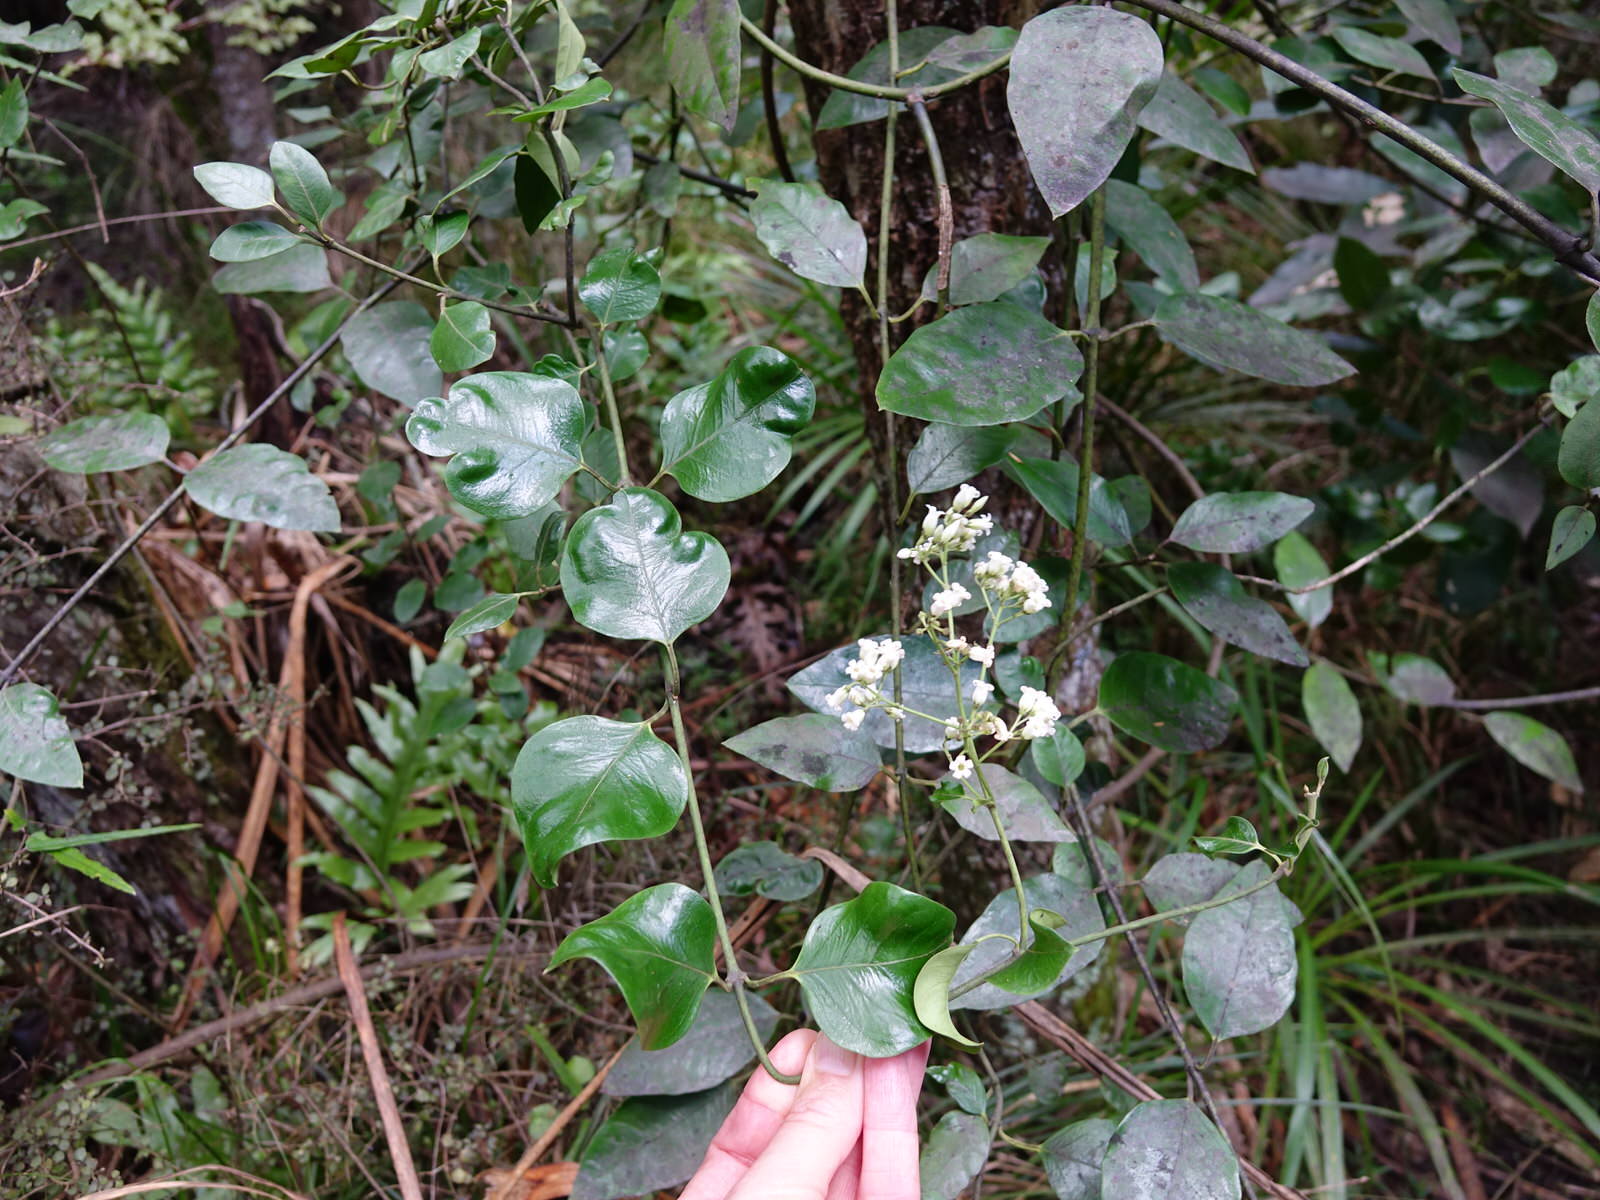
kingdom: Plantae
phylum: Tracheophyta
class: Magnoliopsida
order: Gentianales
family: Apocynaceae
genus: Parsonsia
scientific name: Parsonsia heterophylla
